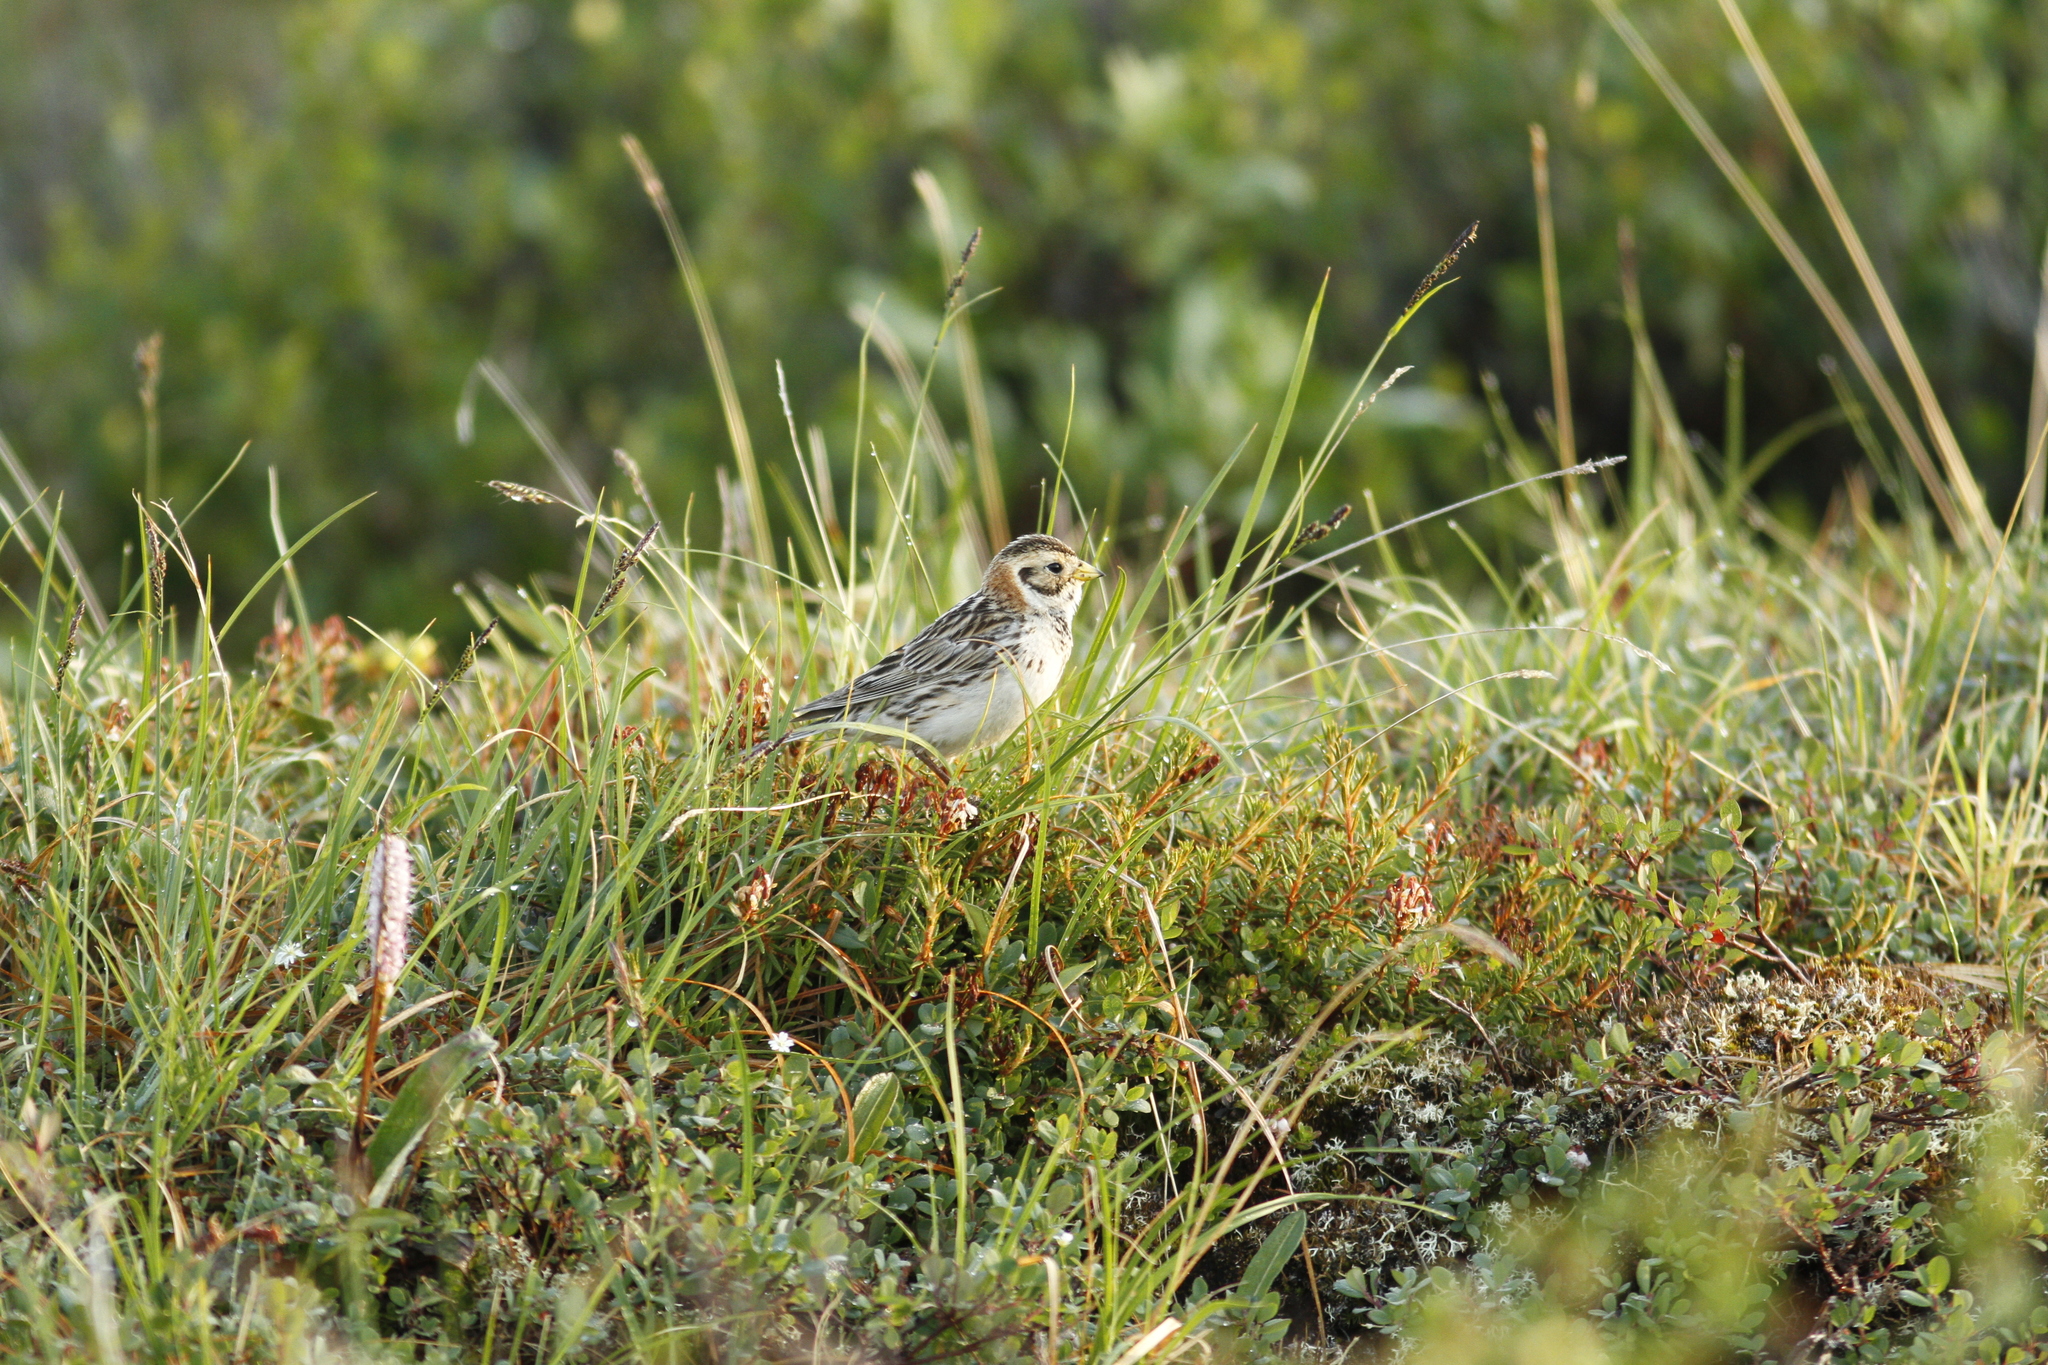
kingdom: Animalia
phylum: Chordata
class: Aves
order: Passeriformes
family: Calcariidae
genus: Calcarius
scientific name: Calcarius lapponicus
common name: Lapland longspur
